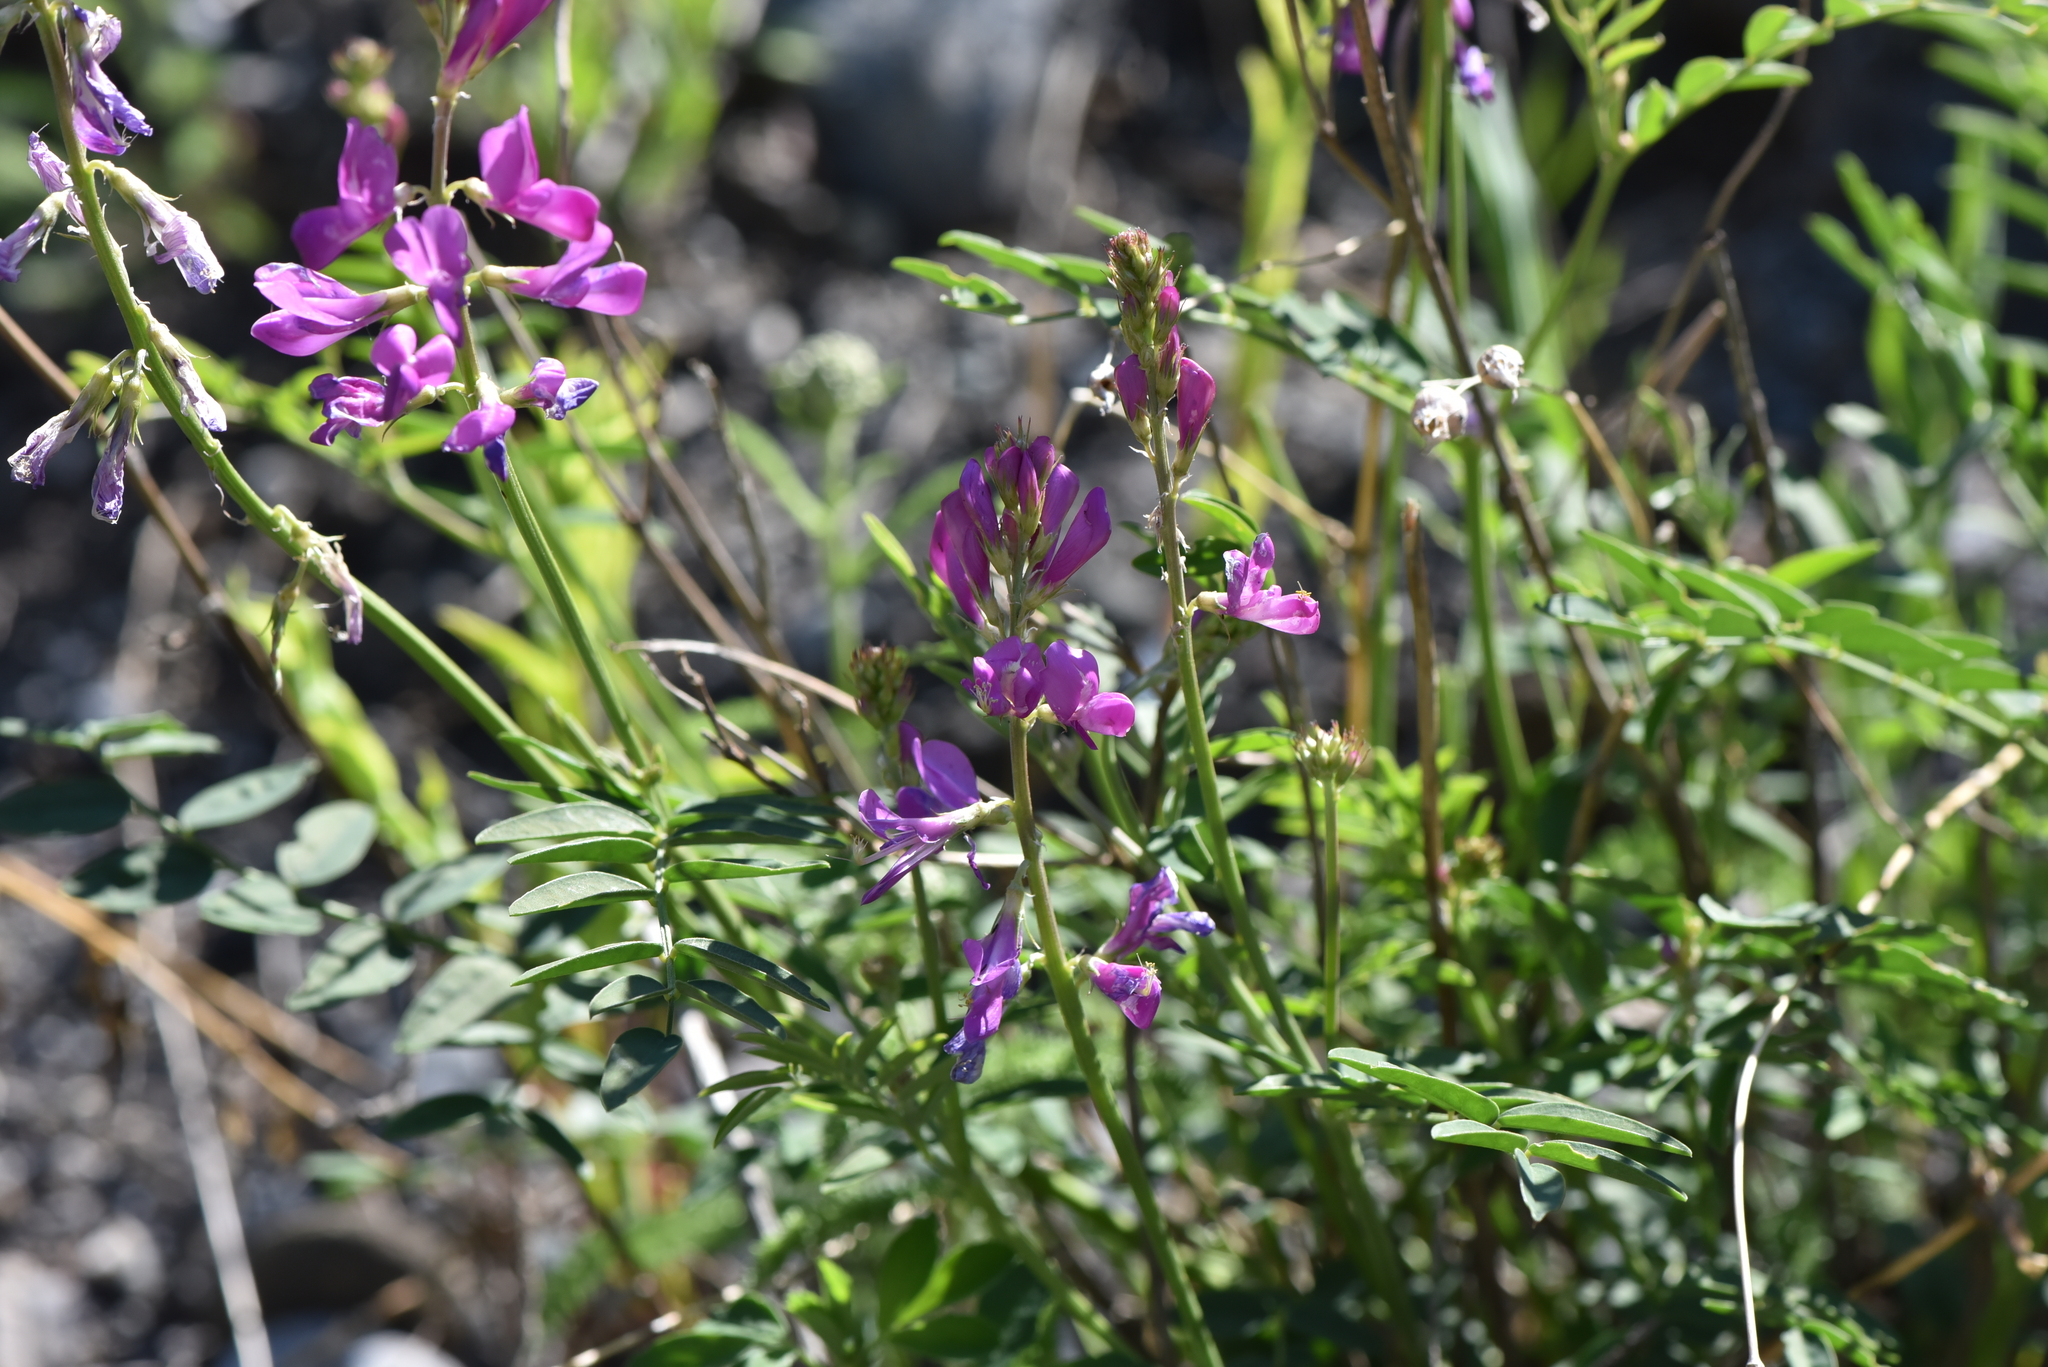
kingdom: Plantae
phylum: Tracheophyta
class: Magnoliopsida
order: Fabales
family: Fabaceae
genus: Hedysarum
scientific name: Hedysarum boreale
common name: Northern sweet-vetch
